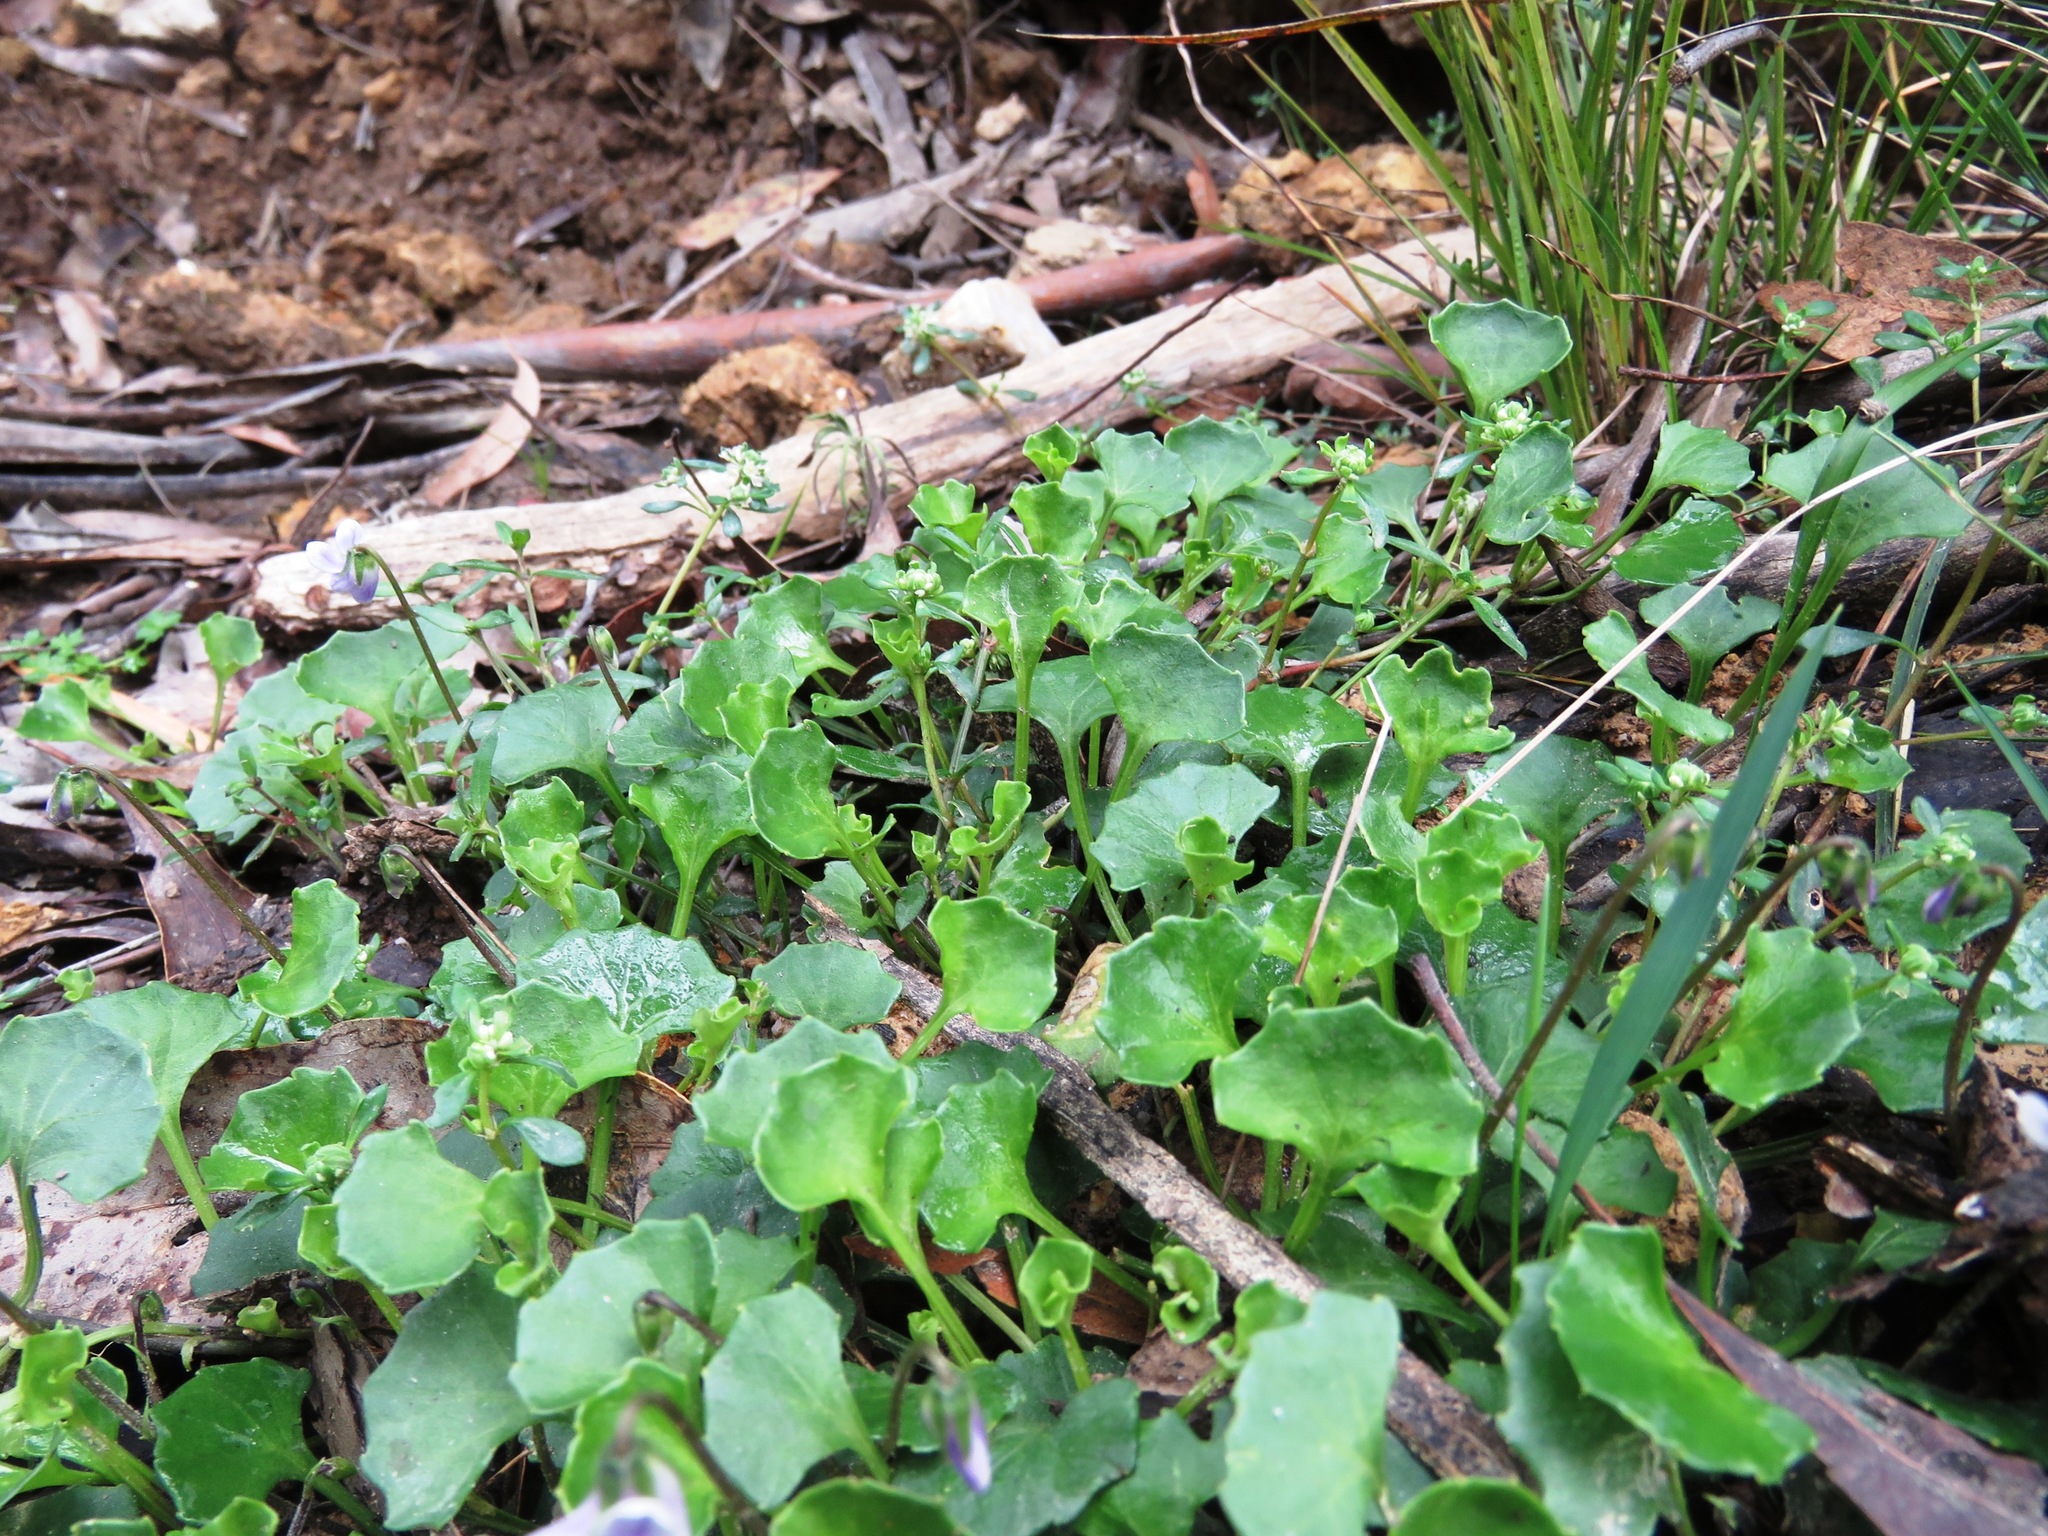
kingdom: Plantae
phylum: Tracheophyta
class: Magnoliopsida
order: Malpighiales
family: Violaceae
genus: Viola
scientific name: Viola hederacea
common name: Australian violet
